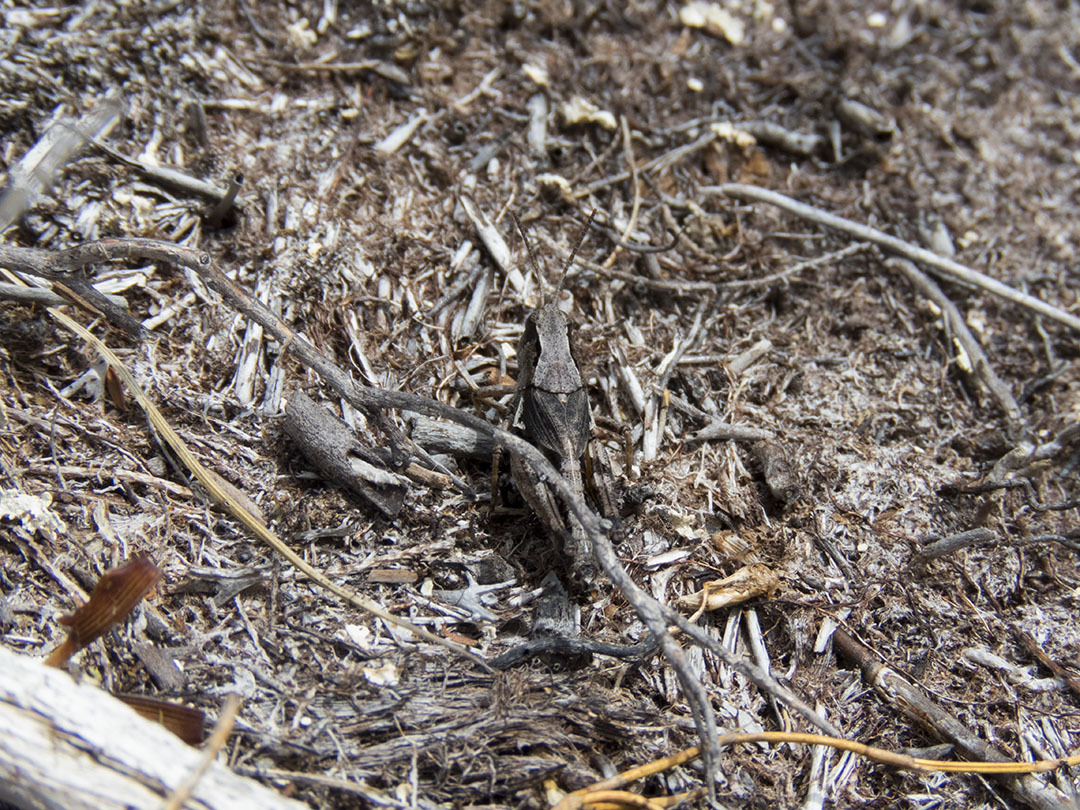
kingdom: Animalia
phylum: Arthropoda
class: Insecta
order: Orthoptera
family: Acrididae
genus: Phaulacridium
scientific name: Phaulacridium marginale
